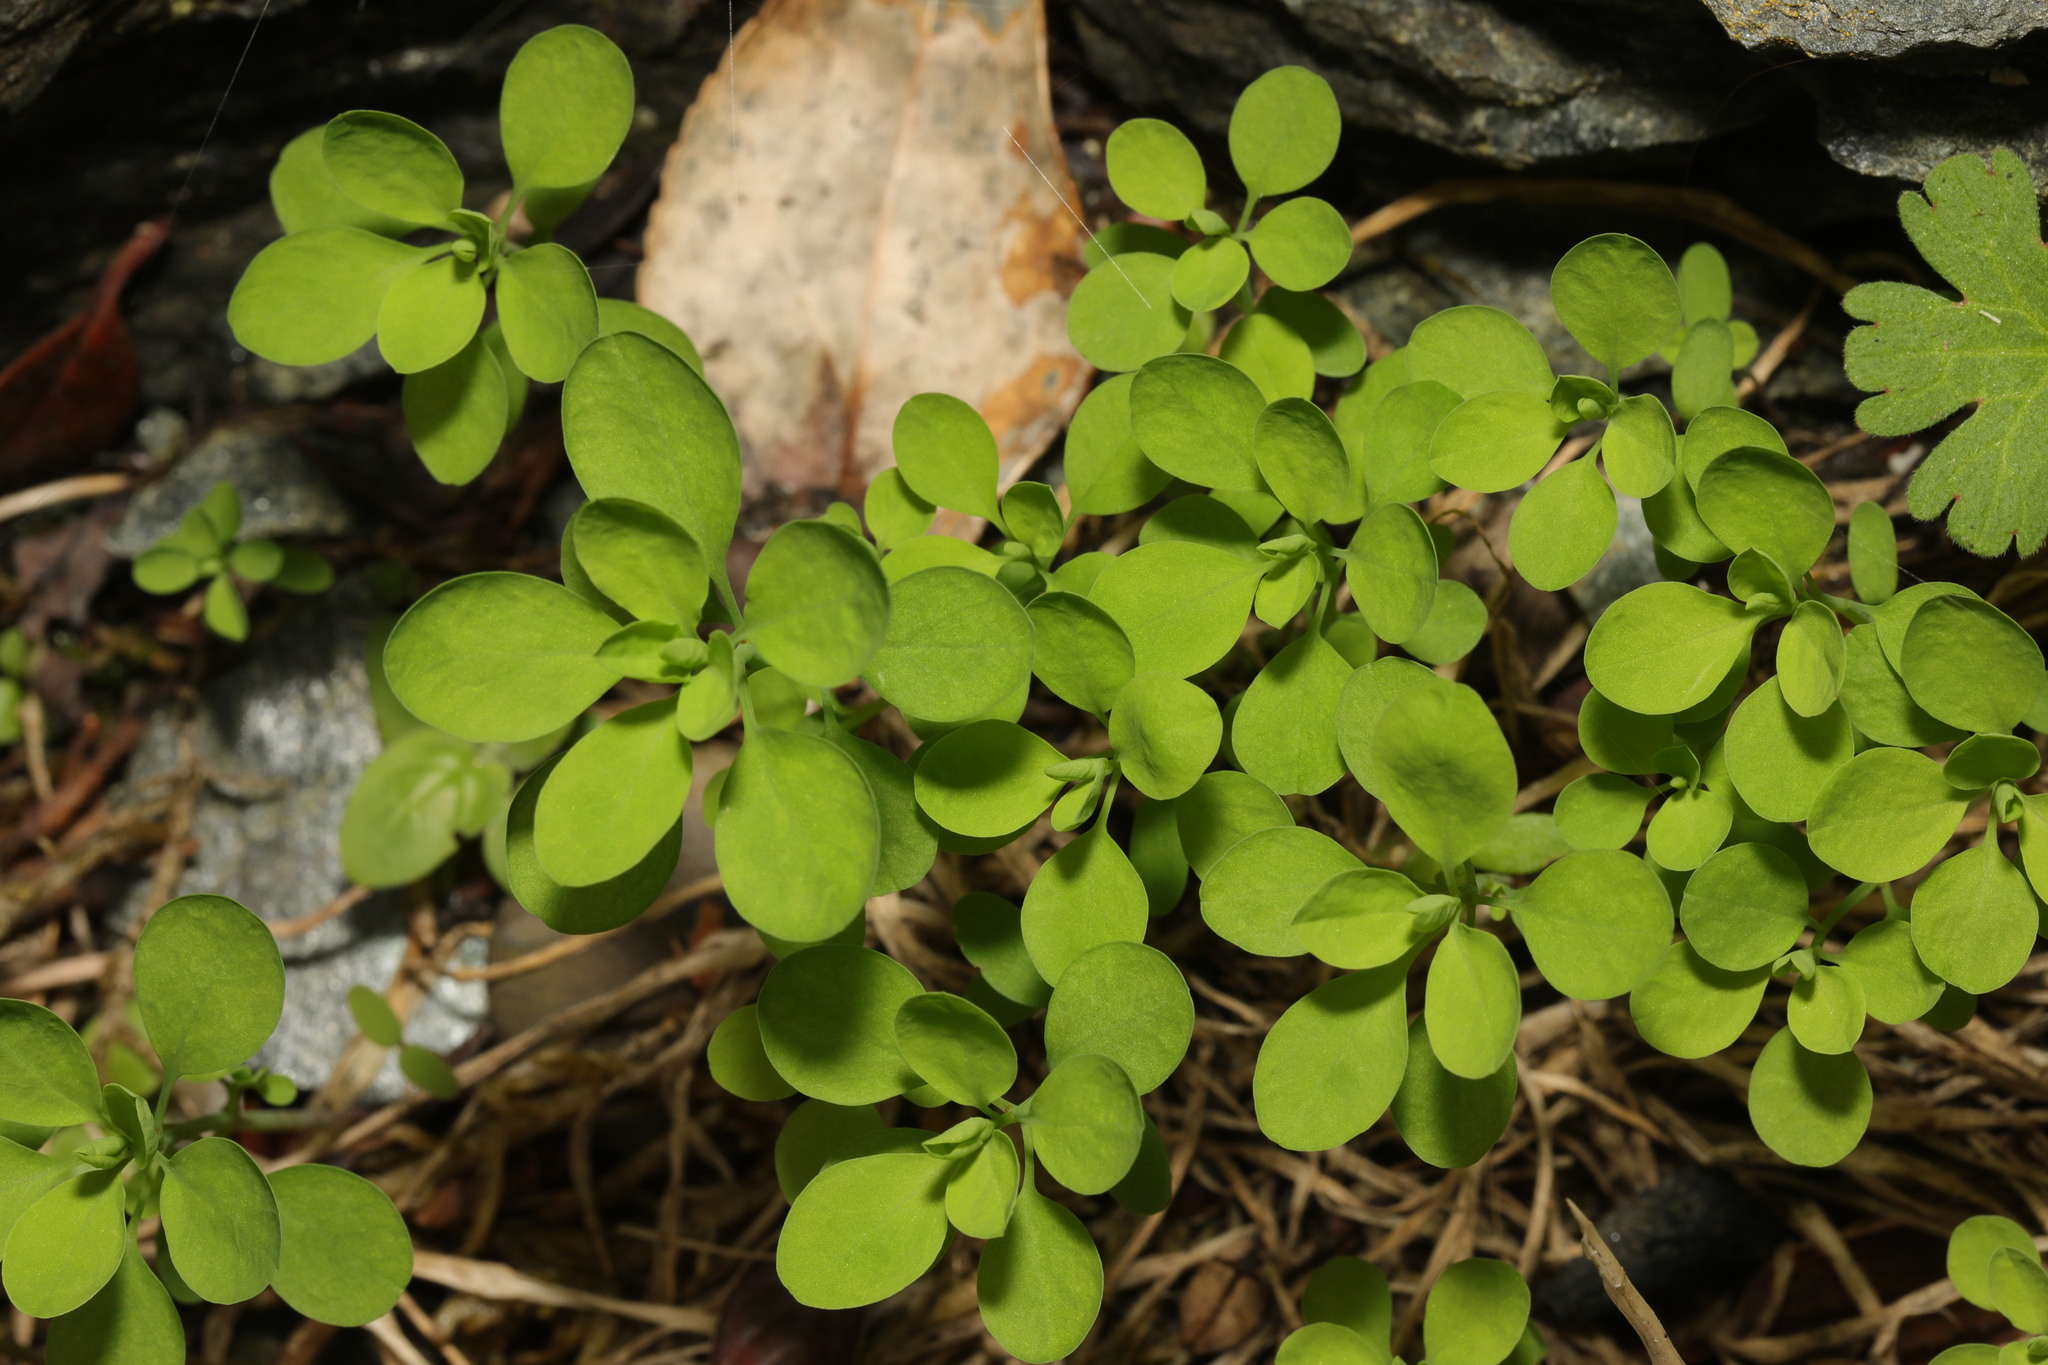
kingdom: Plantae
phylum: Tracheophyta
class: Magnoliopsida
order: Malpighiales
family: Euphorbiaceae
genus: Euphorbia
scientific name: Euphorbia peplus
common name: Petty spurge
